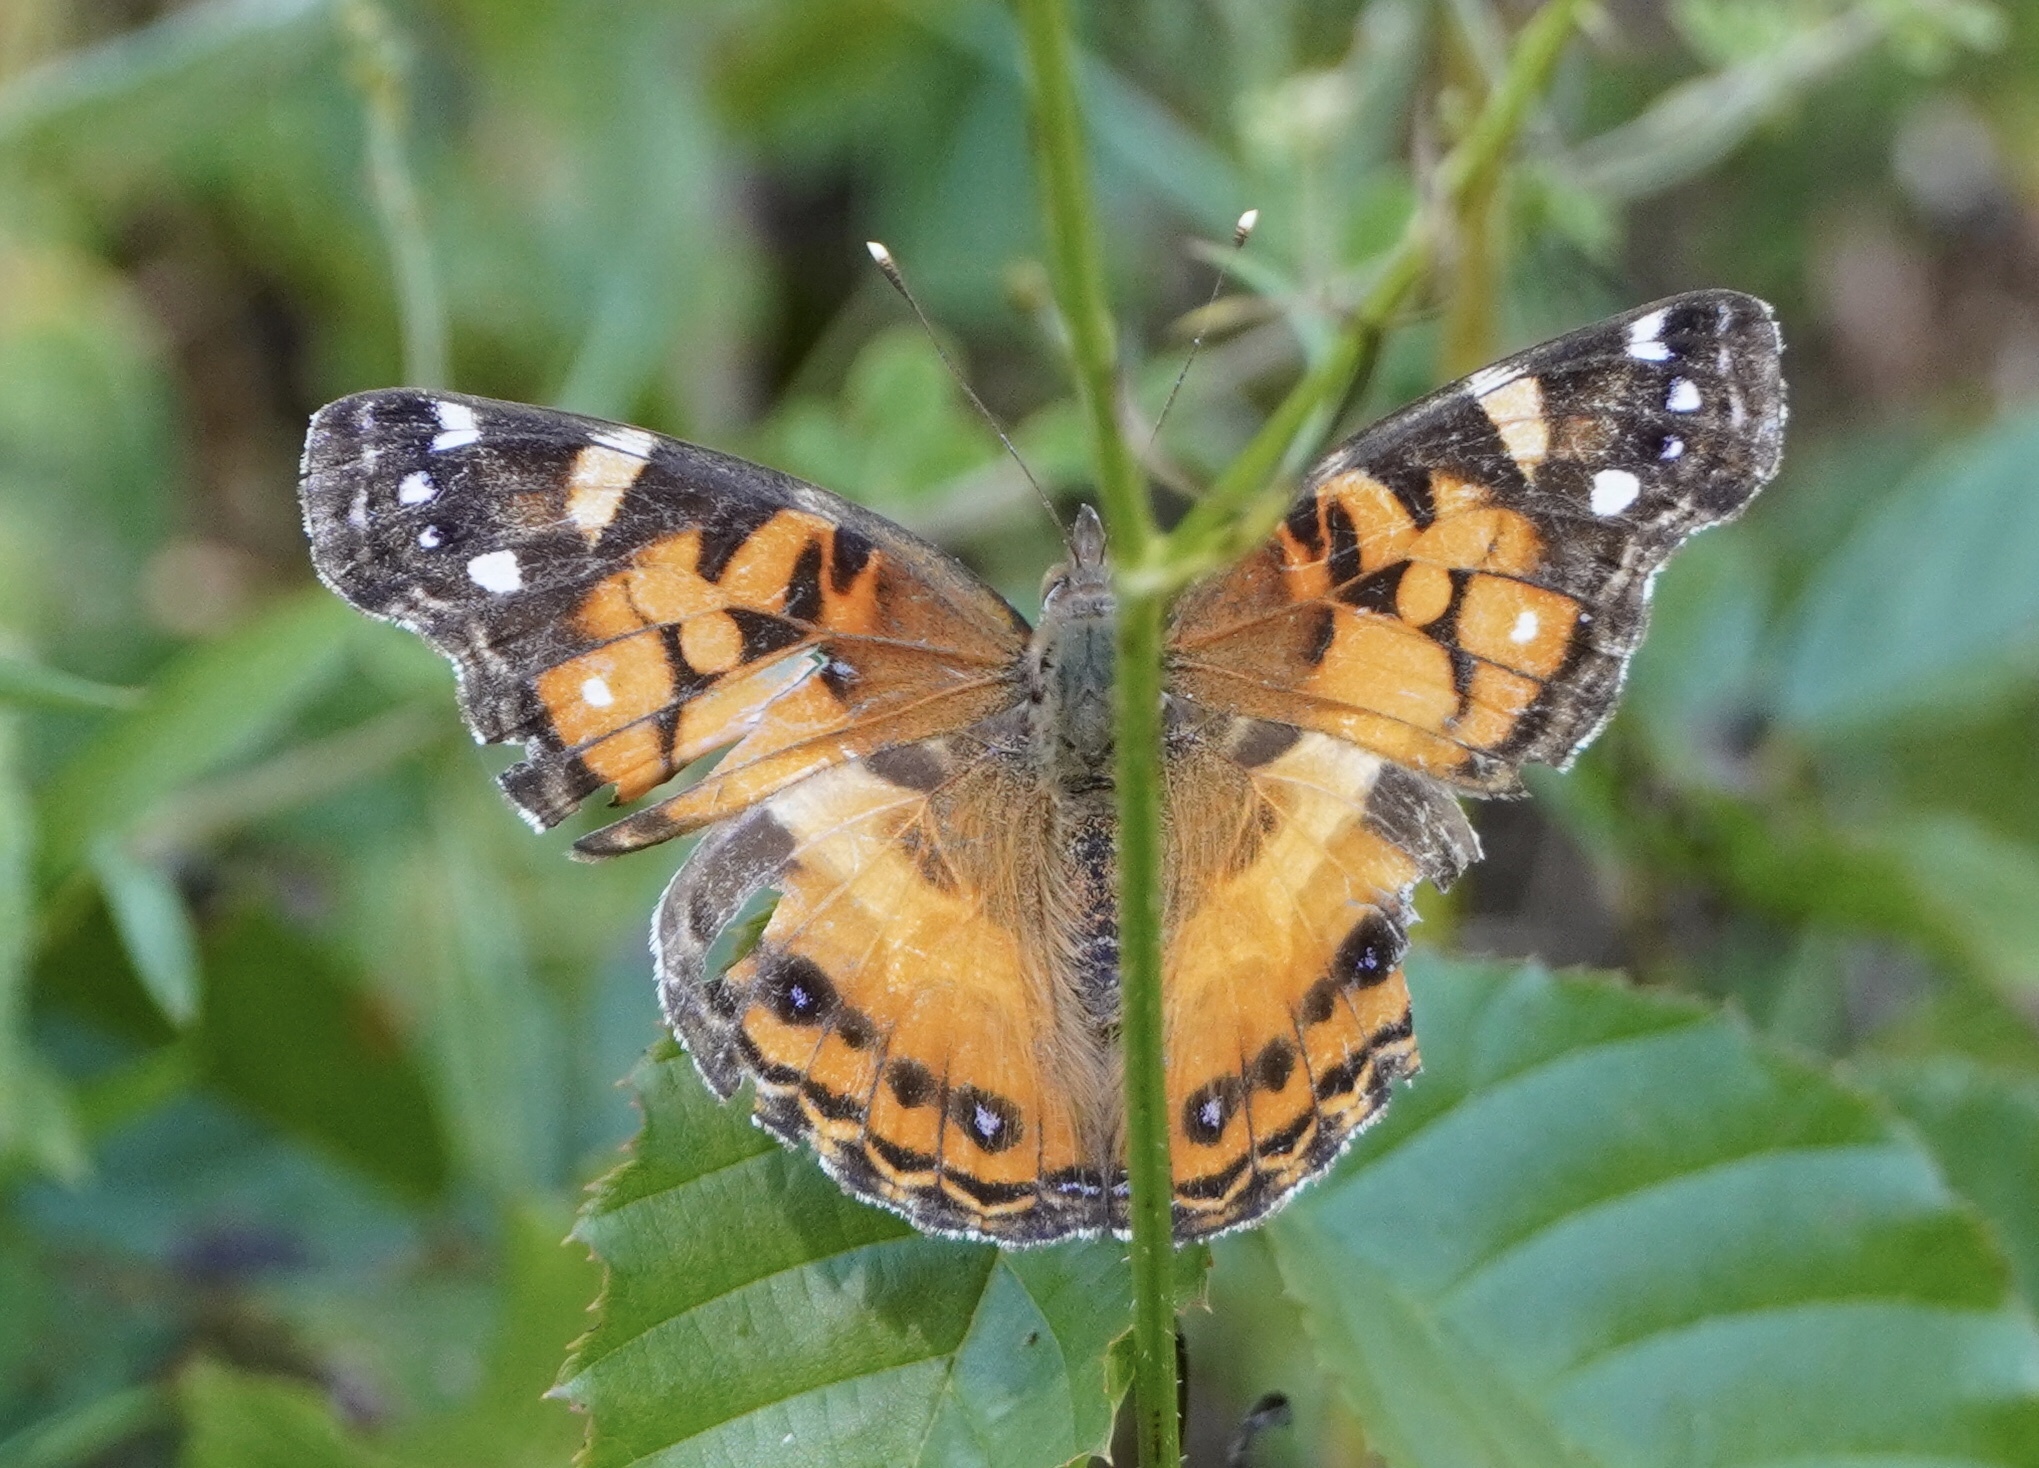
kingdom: Animalia
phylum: Arthropoda
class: Insecta
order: Lepidoptera
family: Nymphalidae
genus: Vanessa
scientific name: Vanessa virginiensis
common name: American lady
